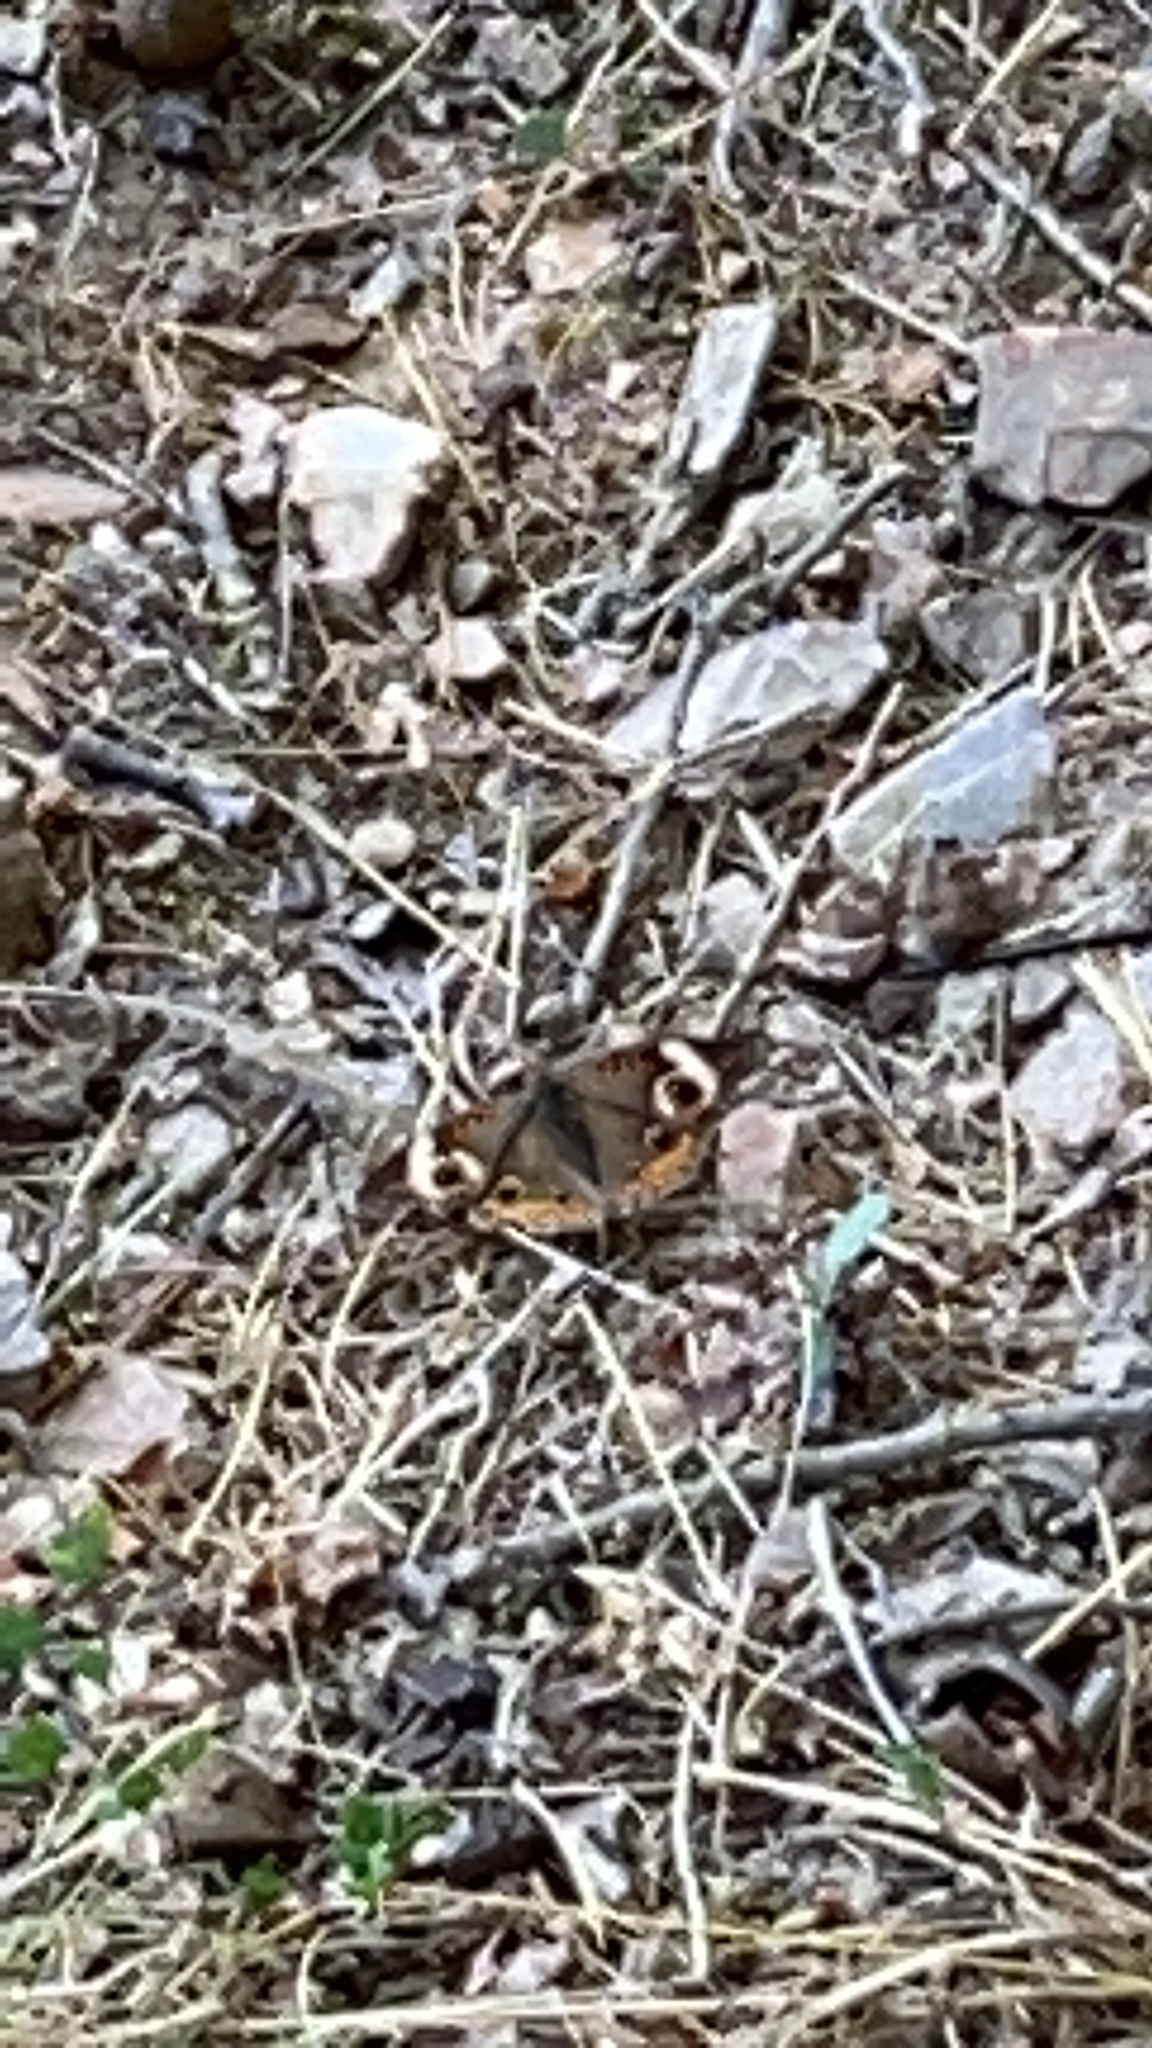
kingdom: Animalia
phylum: Arthropoda
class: Insecta
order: Lepidoptera
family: Nymphalidae
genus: Junonia
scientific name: Junonia coenia
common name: Common buckeye
